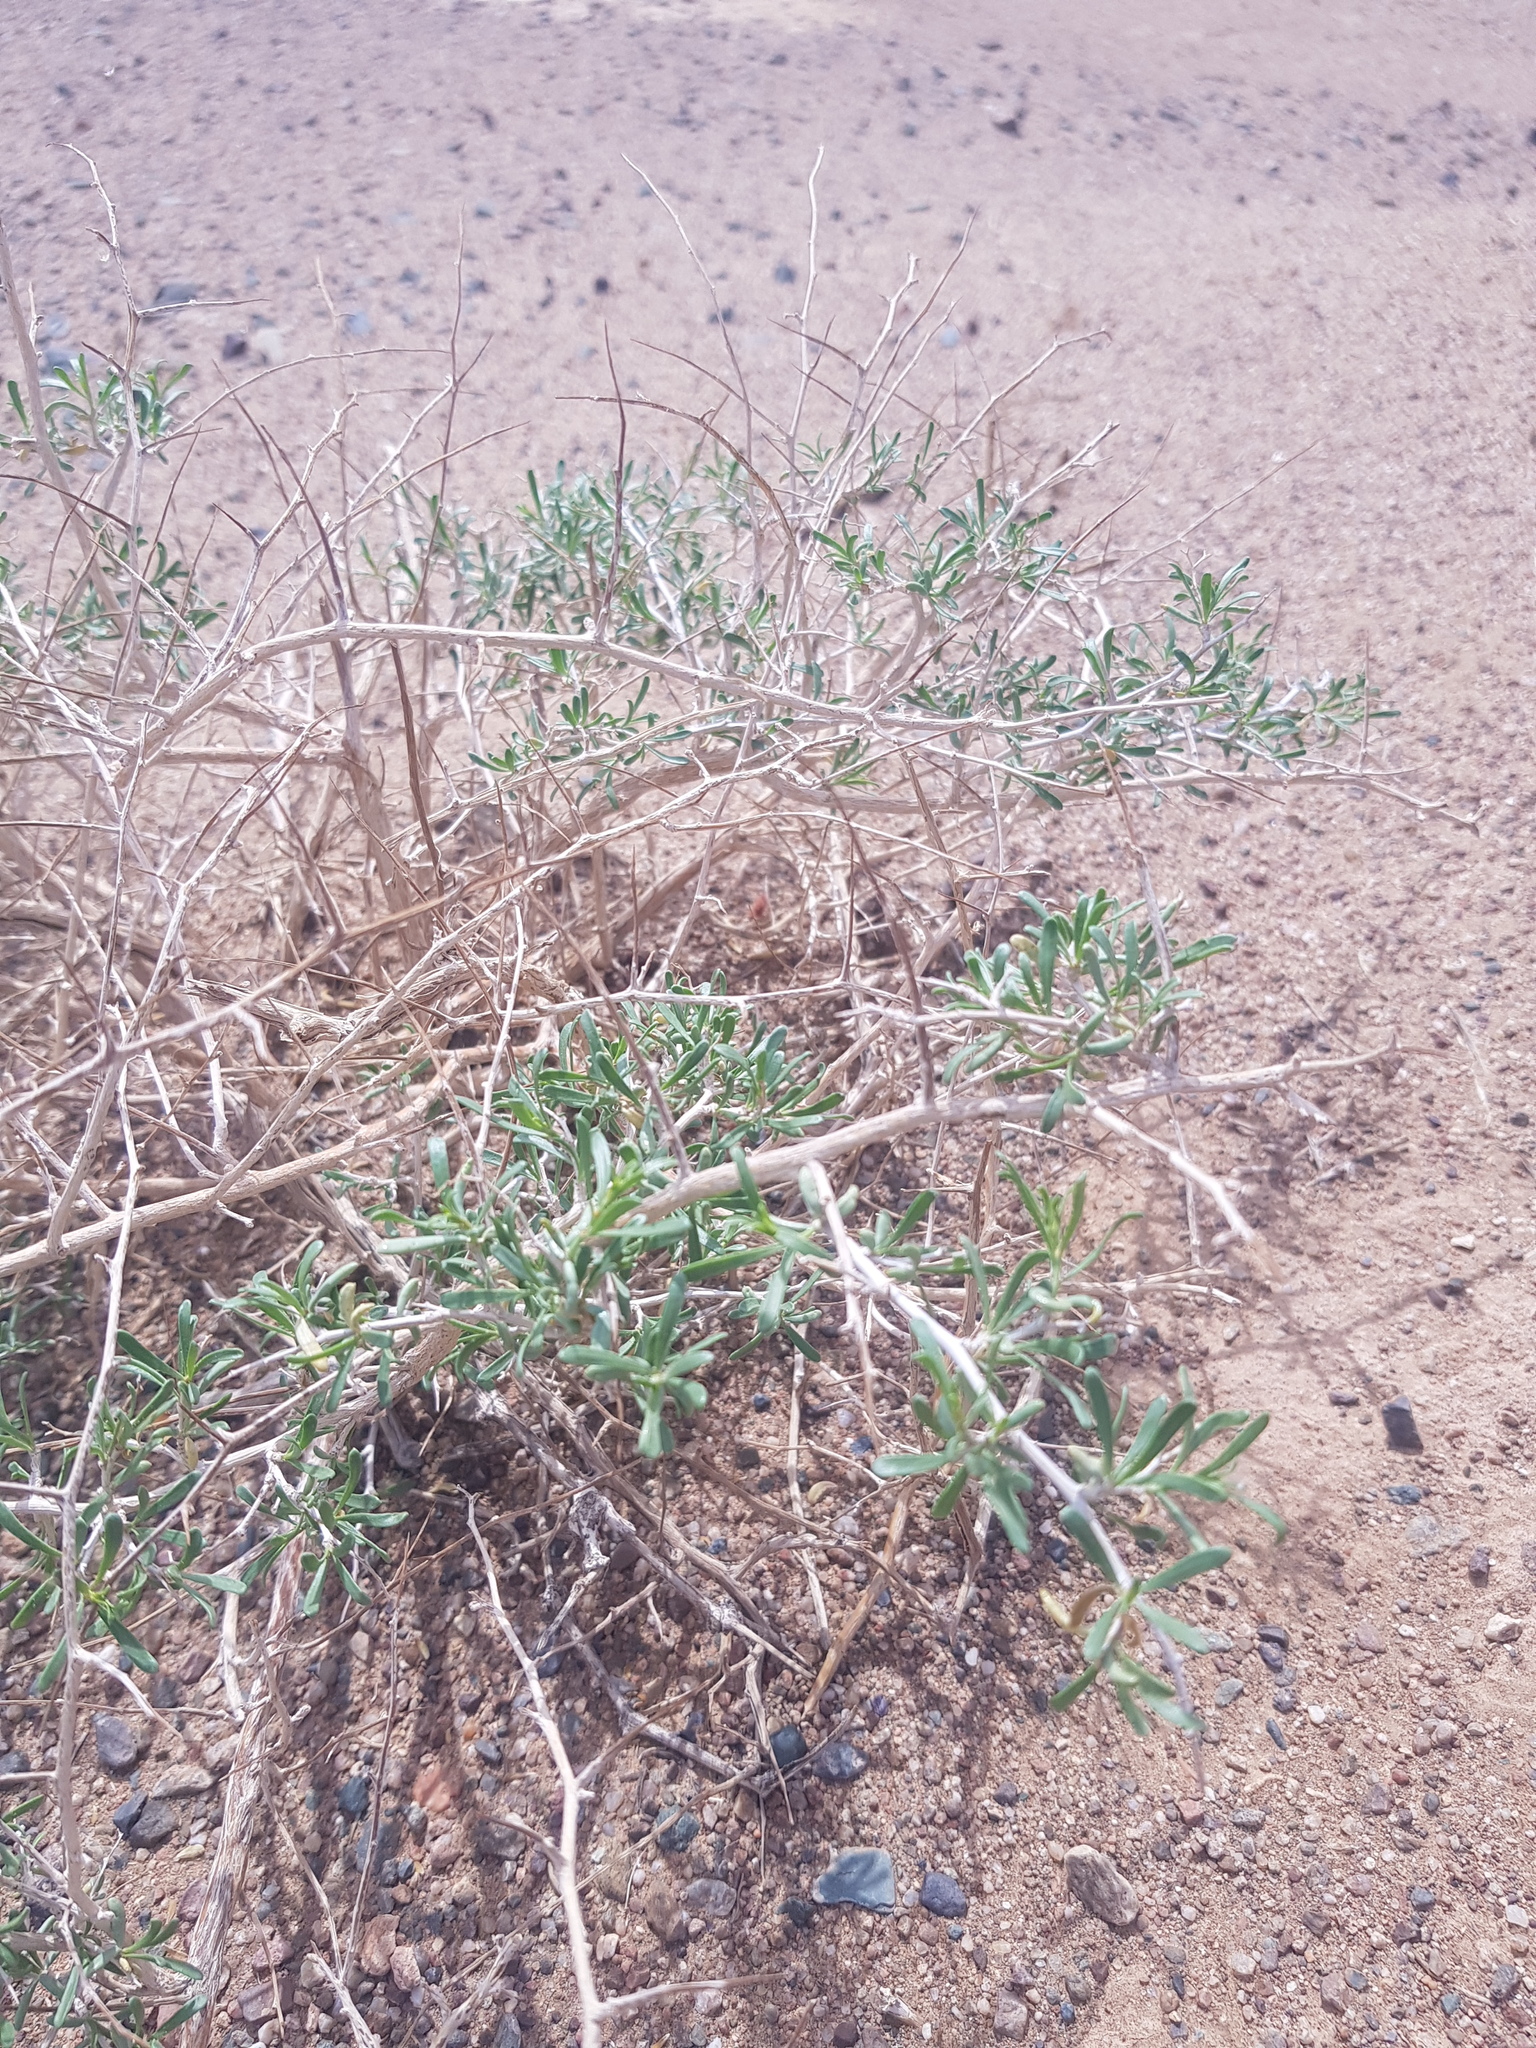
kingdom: Plantae
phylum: Tracheophyta
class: Magnoliopsida
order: Zygophyllales
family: Zygophyllaceae
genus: Zygophyllum
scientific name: Zygophyllum xanthoxylum
